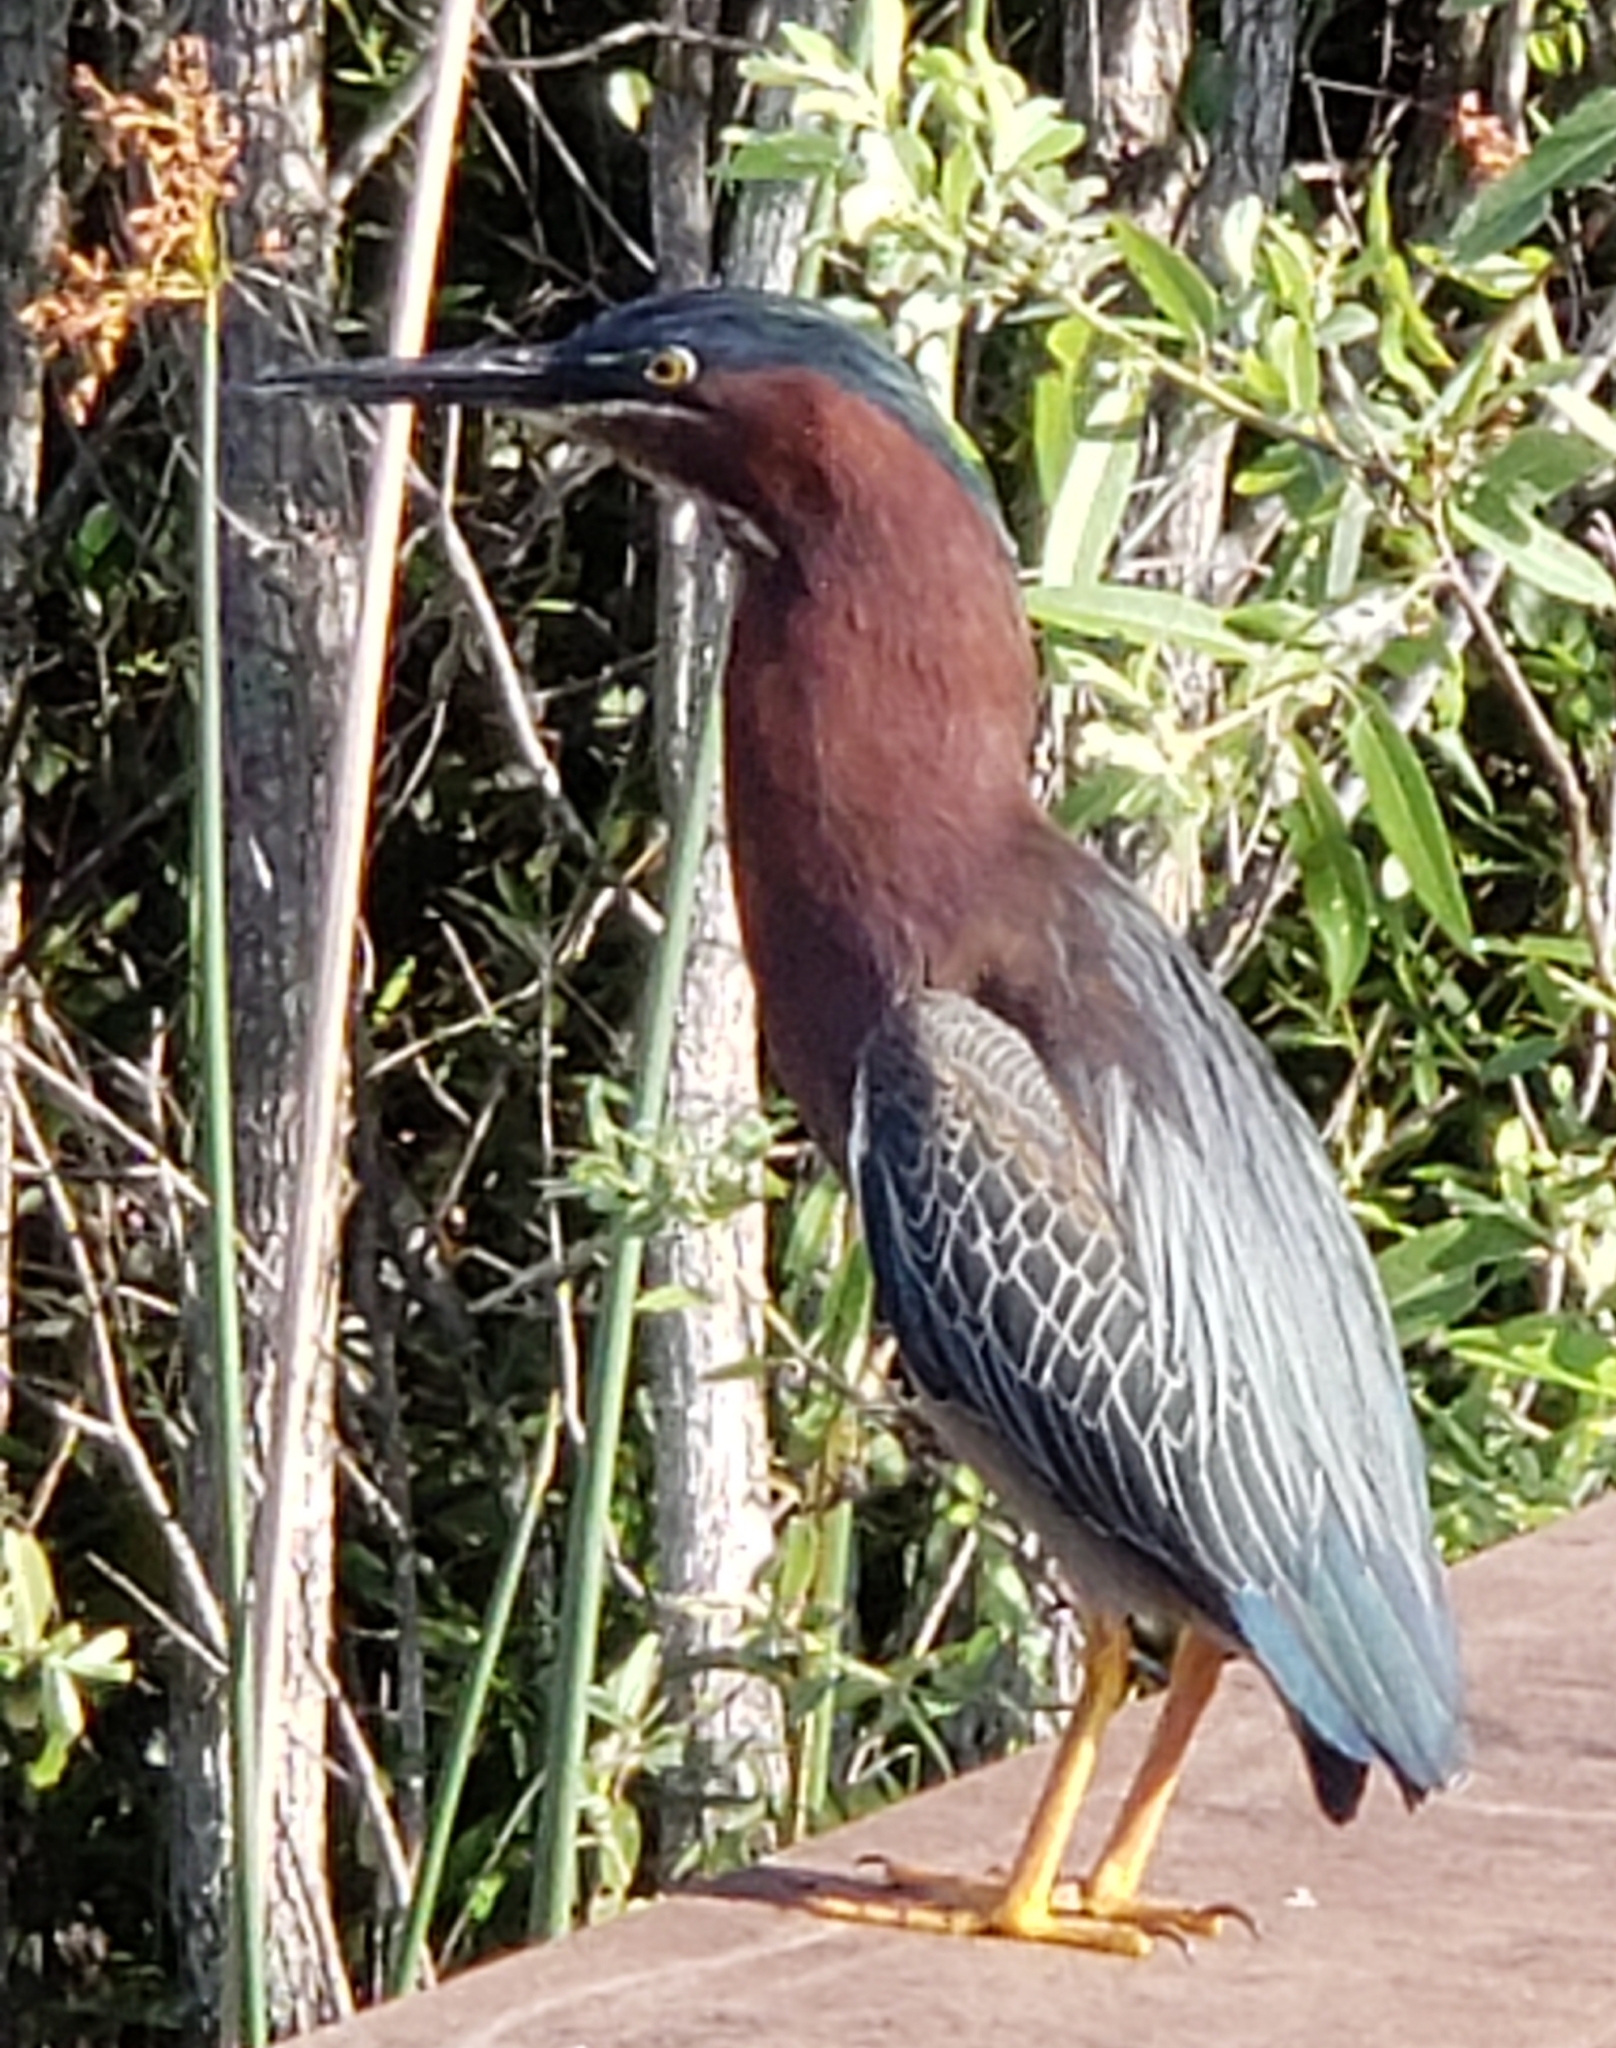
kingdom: Animalia
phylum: Chordata
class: Aves
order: Pelecaniformes
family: Ardeidae
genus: Butorides
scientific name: Butorides virescens
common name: Green heron
